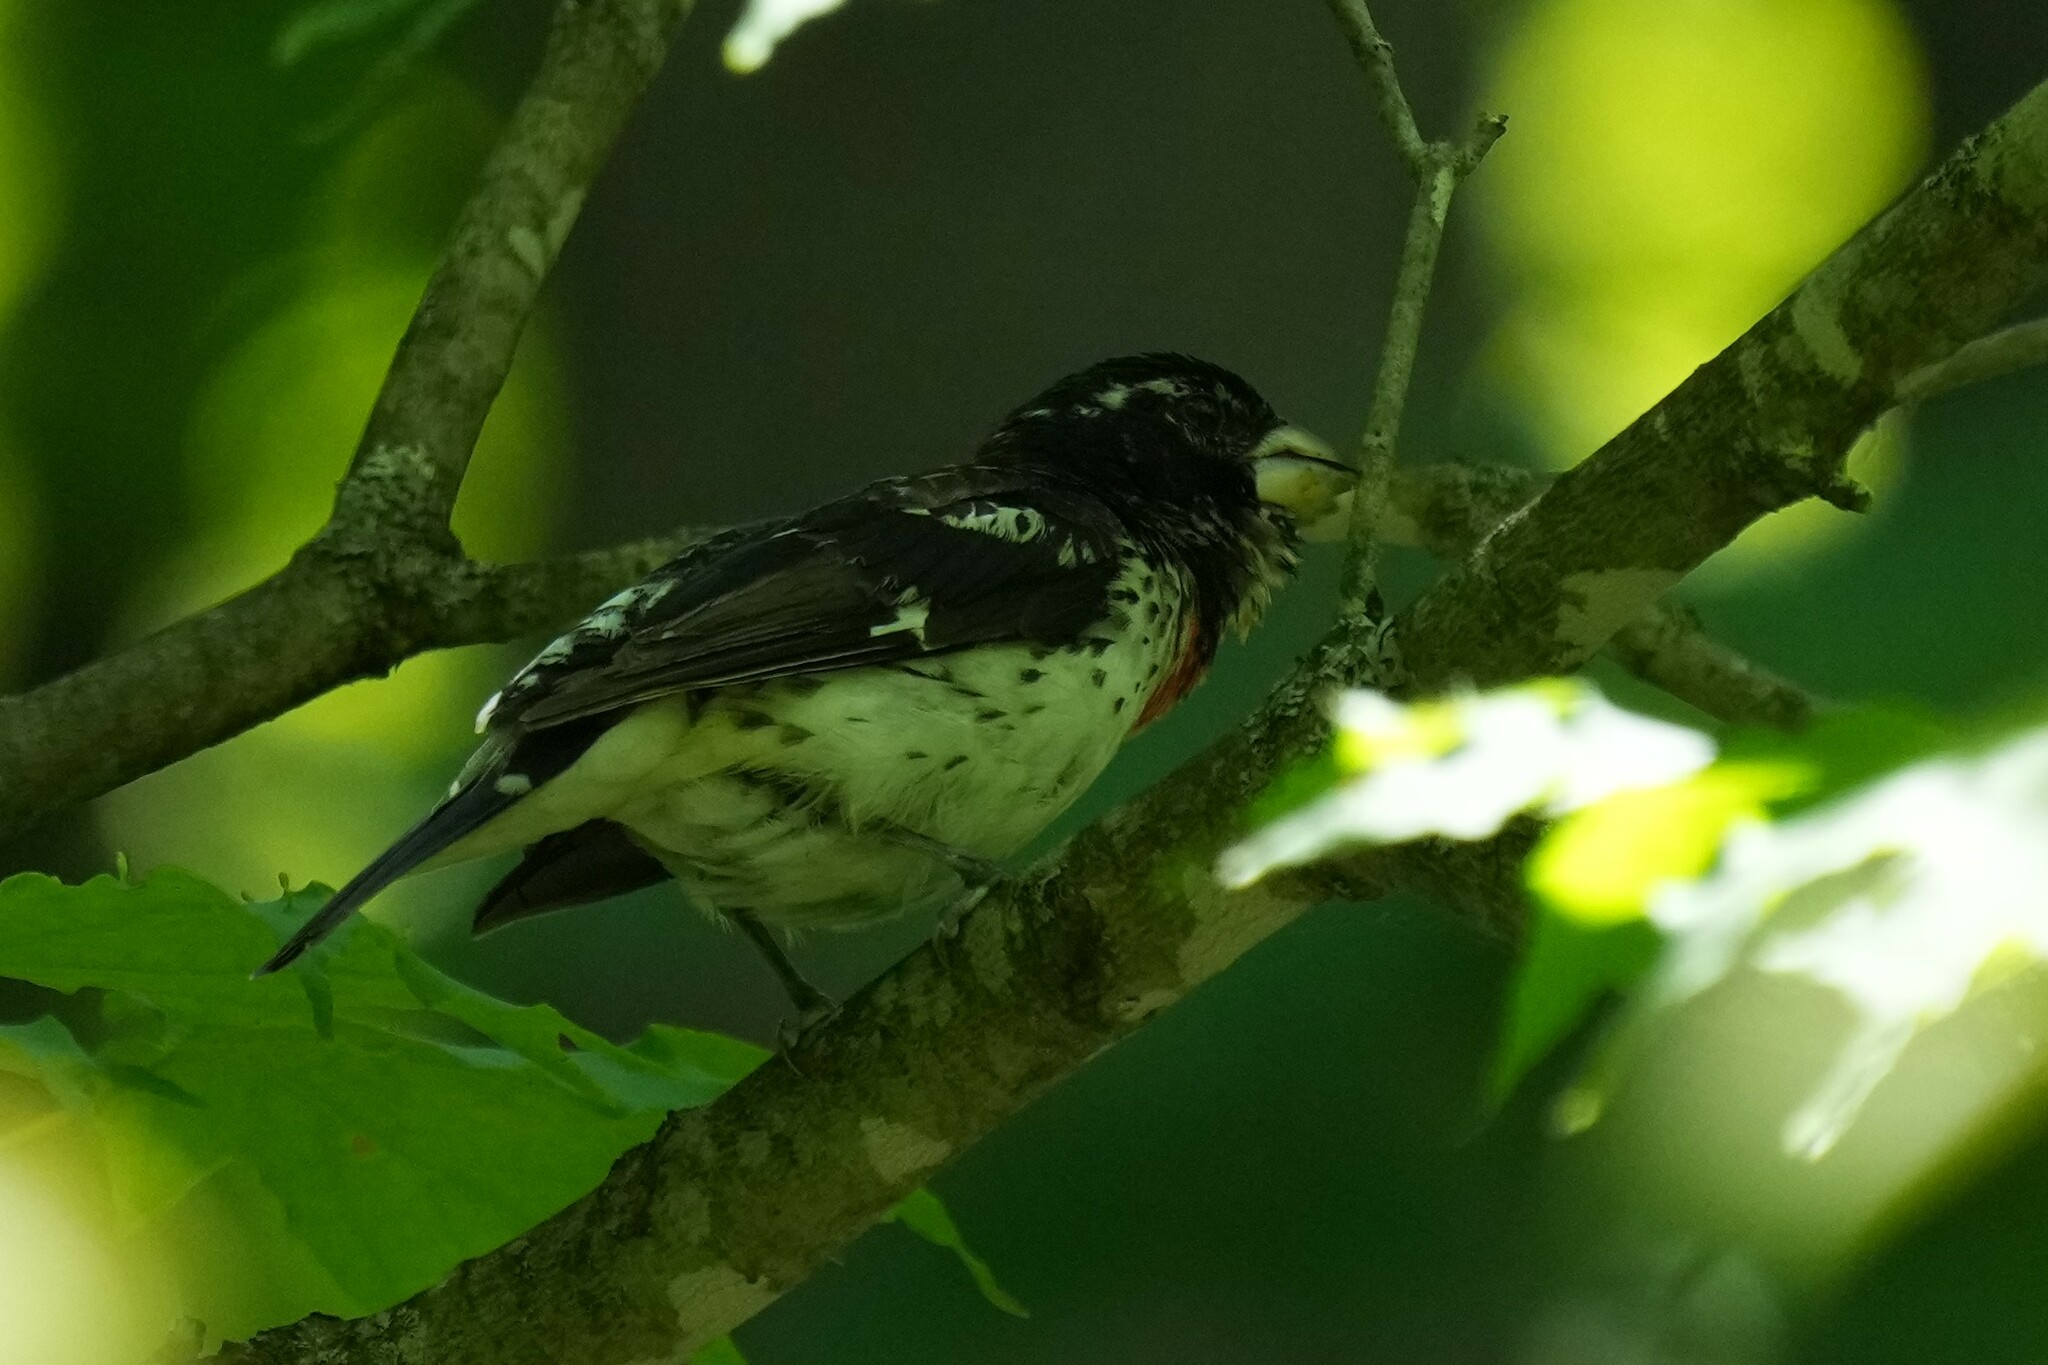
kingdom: Animalia
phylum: Chordata
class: Aves
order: Passeriformes
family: Cardinalidae
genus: Pheucticus
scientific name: Pheucticus ludovicianus
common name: Rose-breasted grosbeak
